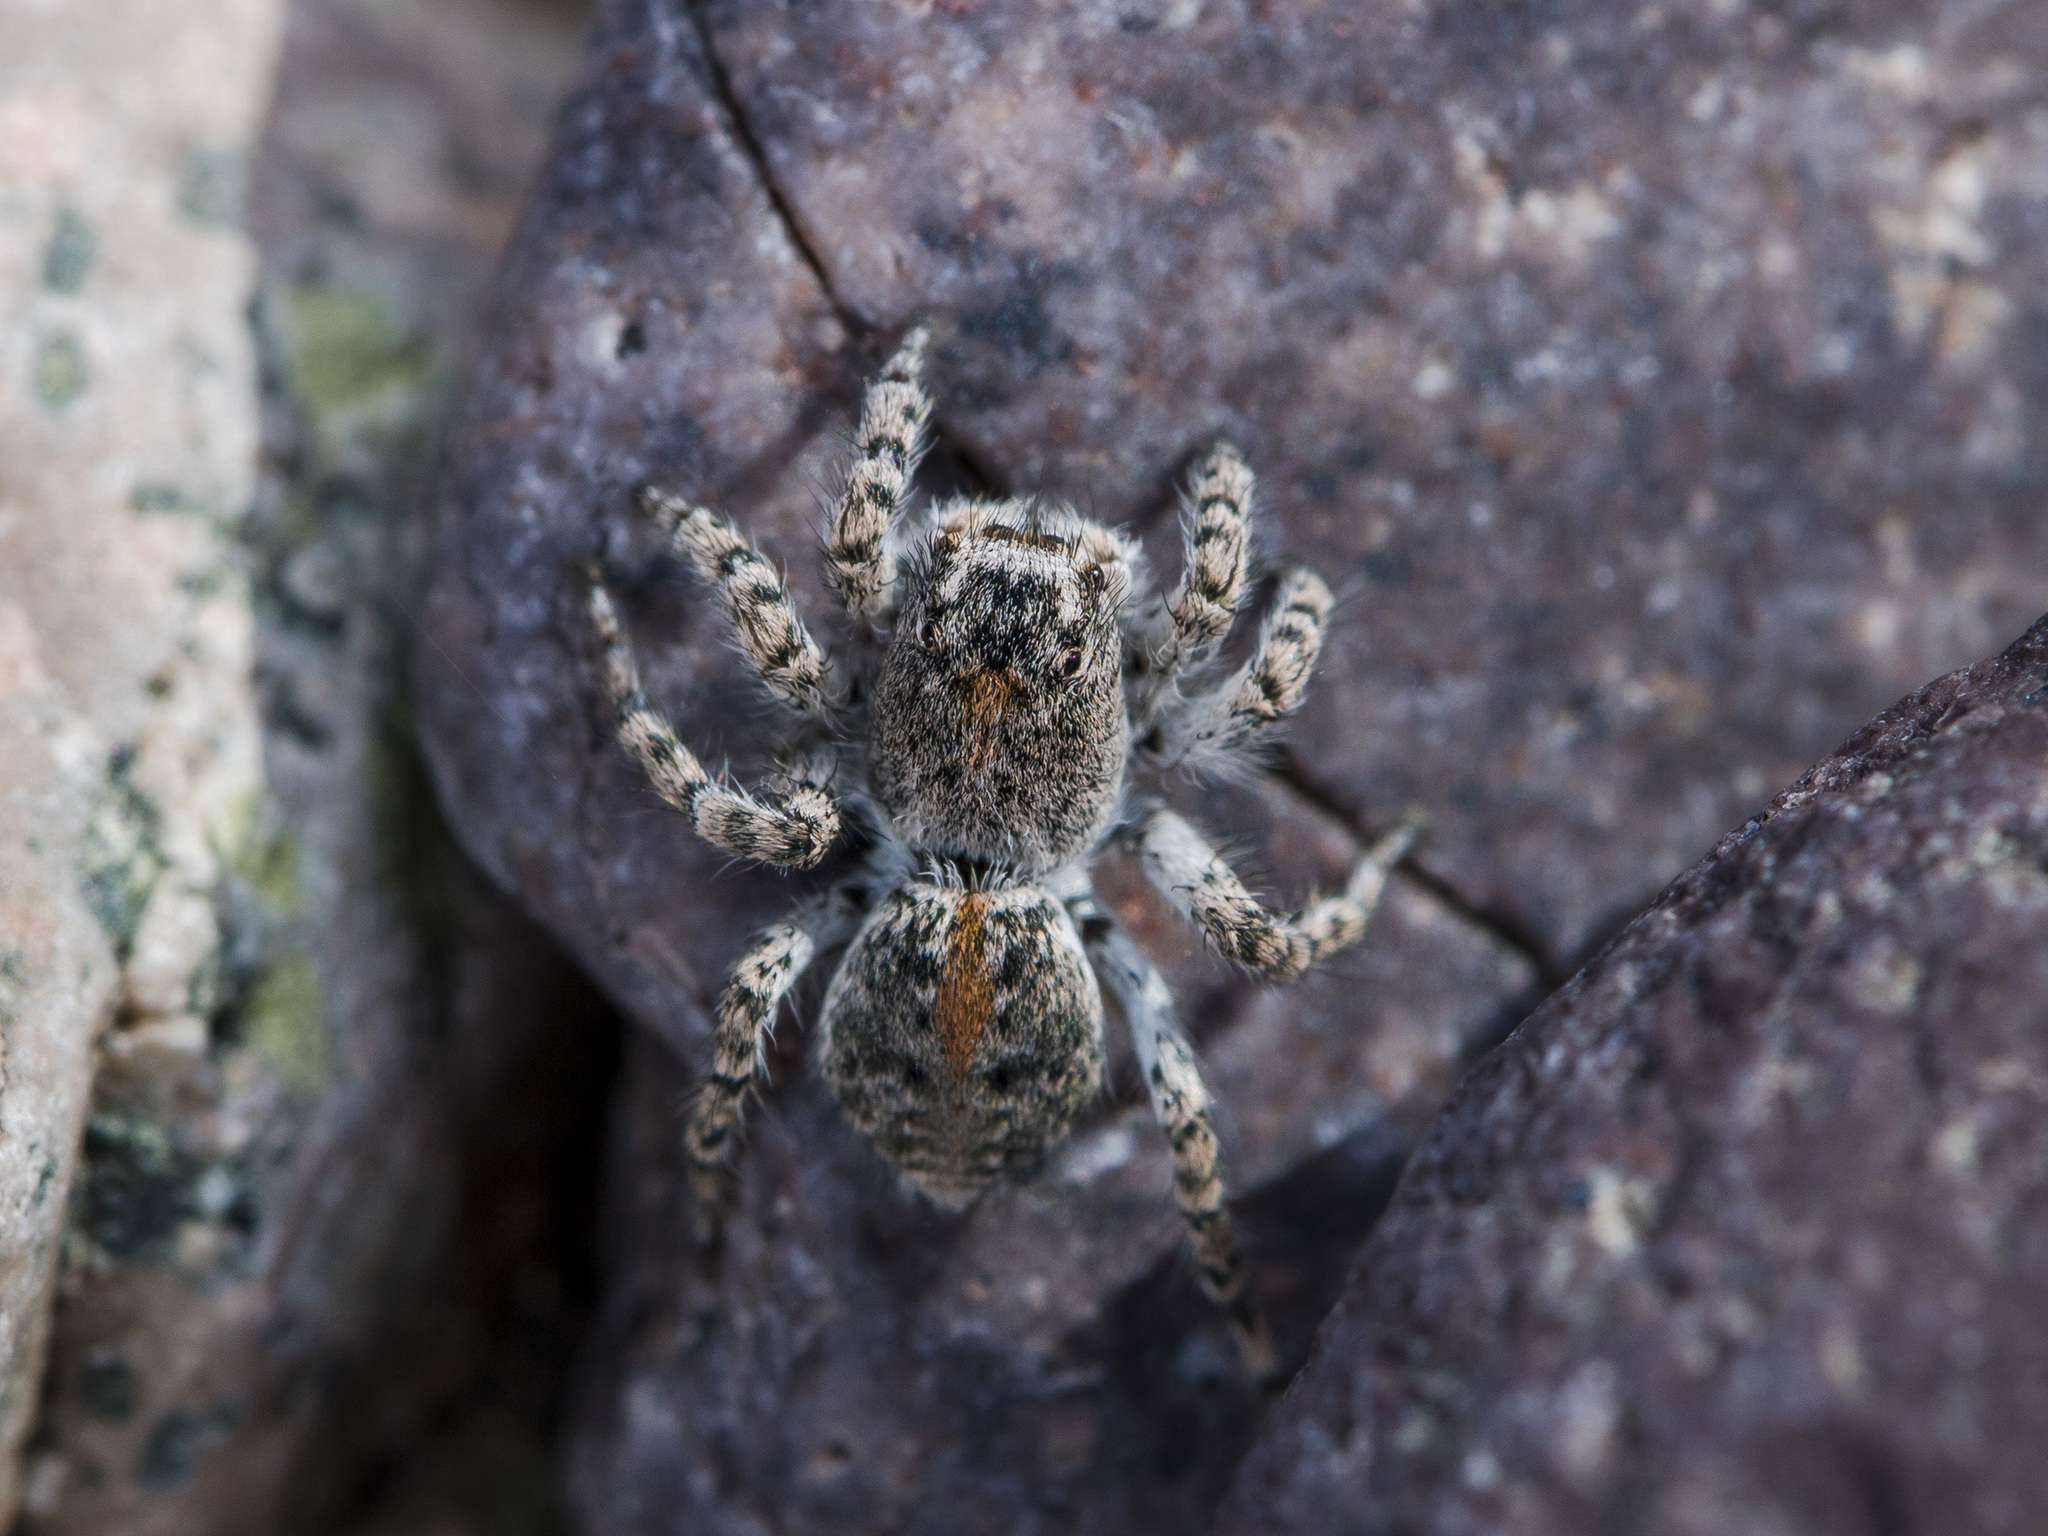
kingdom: Animalia
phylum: Arthropoda
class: Arachnida
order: Araneae
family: Salticidae
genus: Aelurillus
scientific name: Aelurillus dubatolovi
